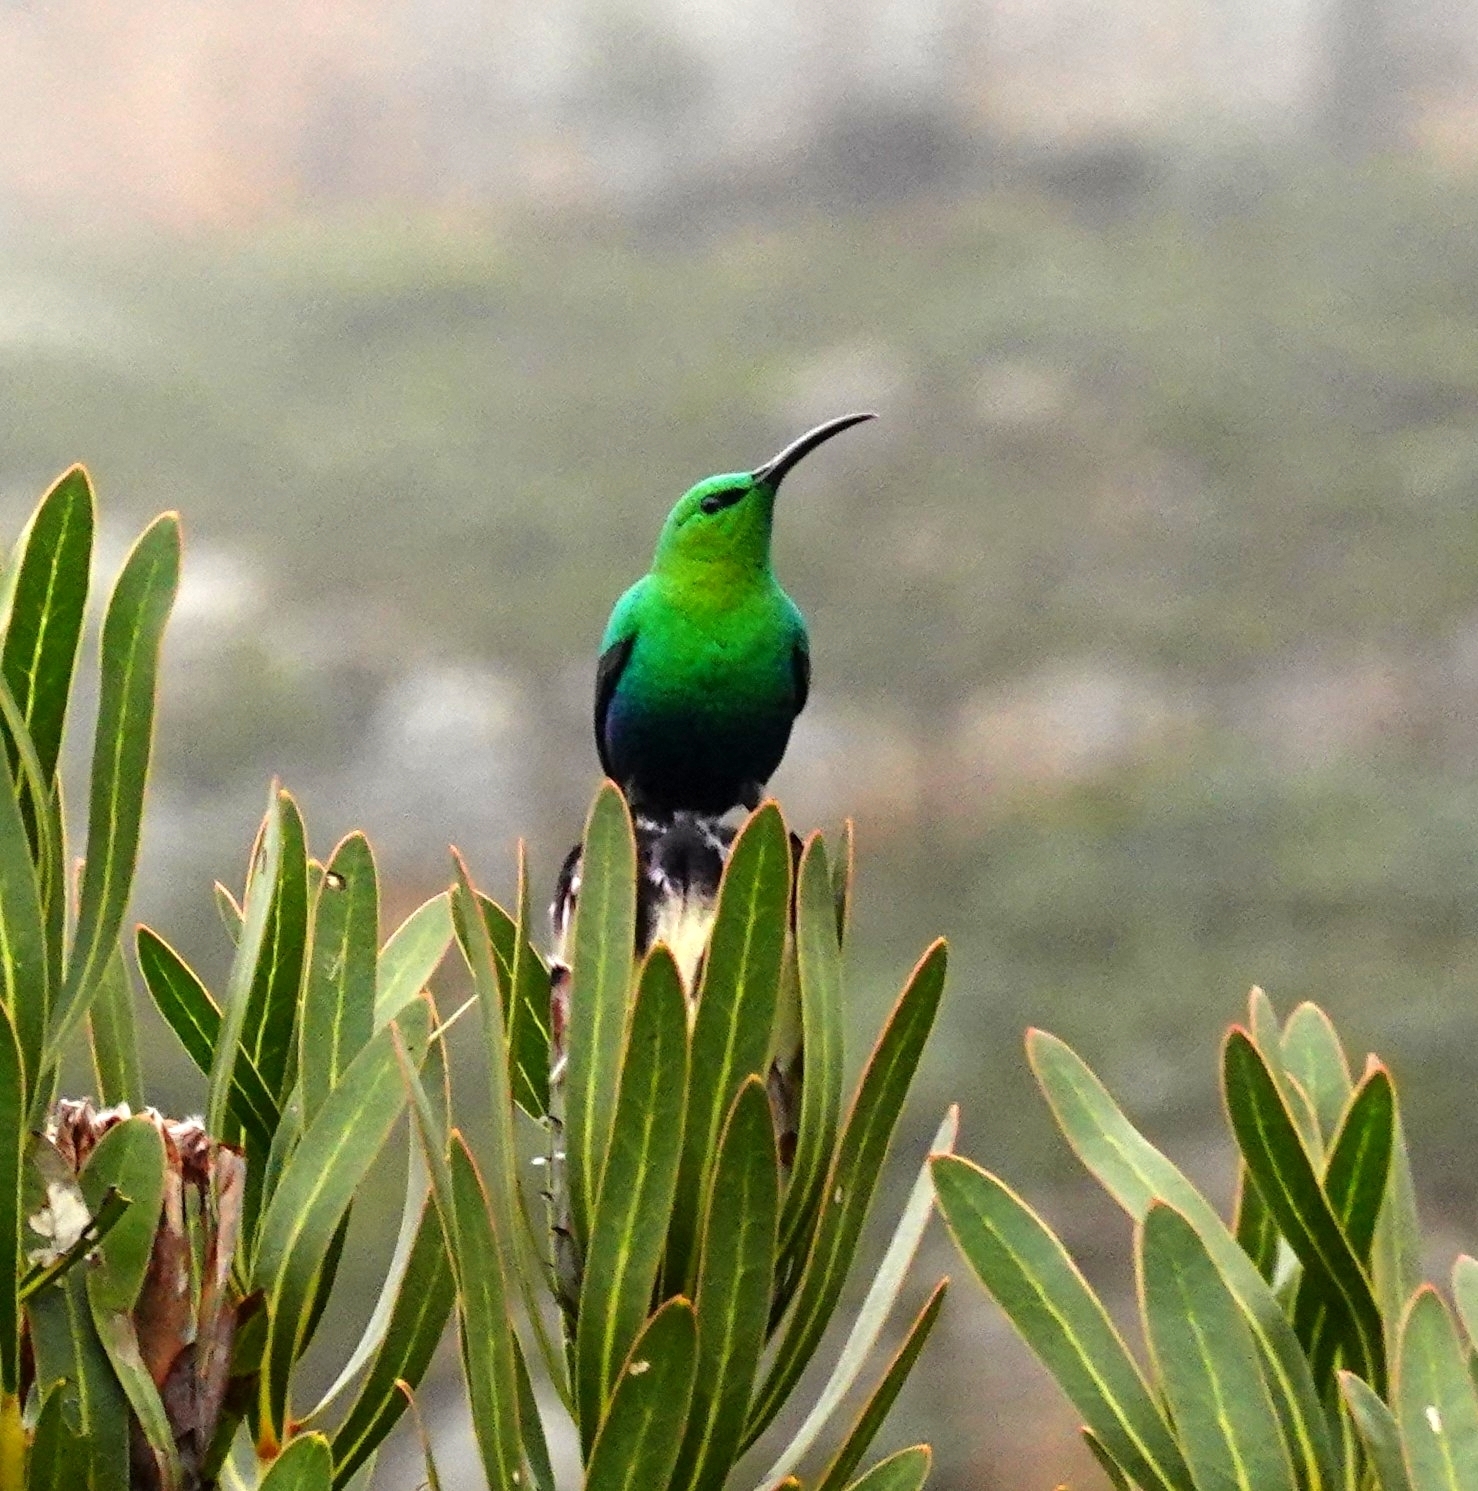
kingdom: Animalia
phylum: Chordata
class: Aves
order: Passeriformes
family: Nectariniidae
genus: Nectarinia
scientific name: Nectarinia famosa
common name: Malachite sunbird
